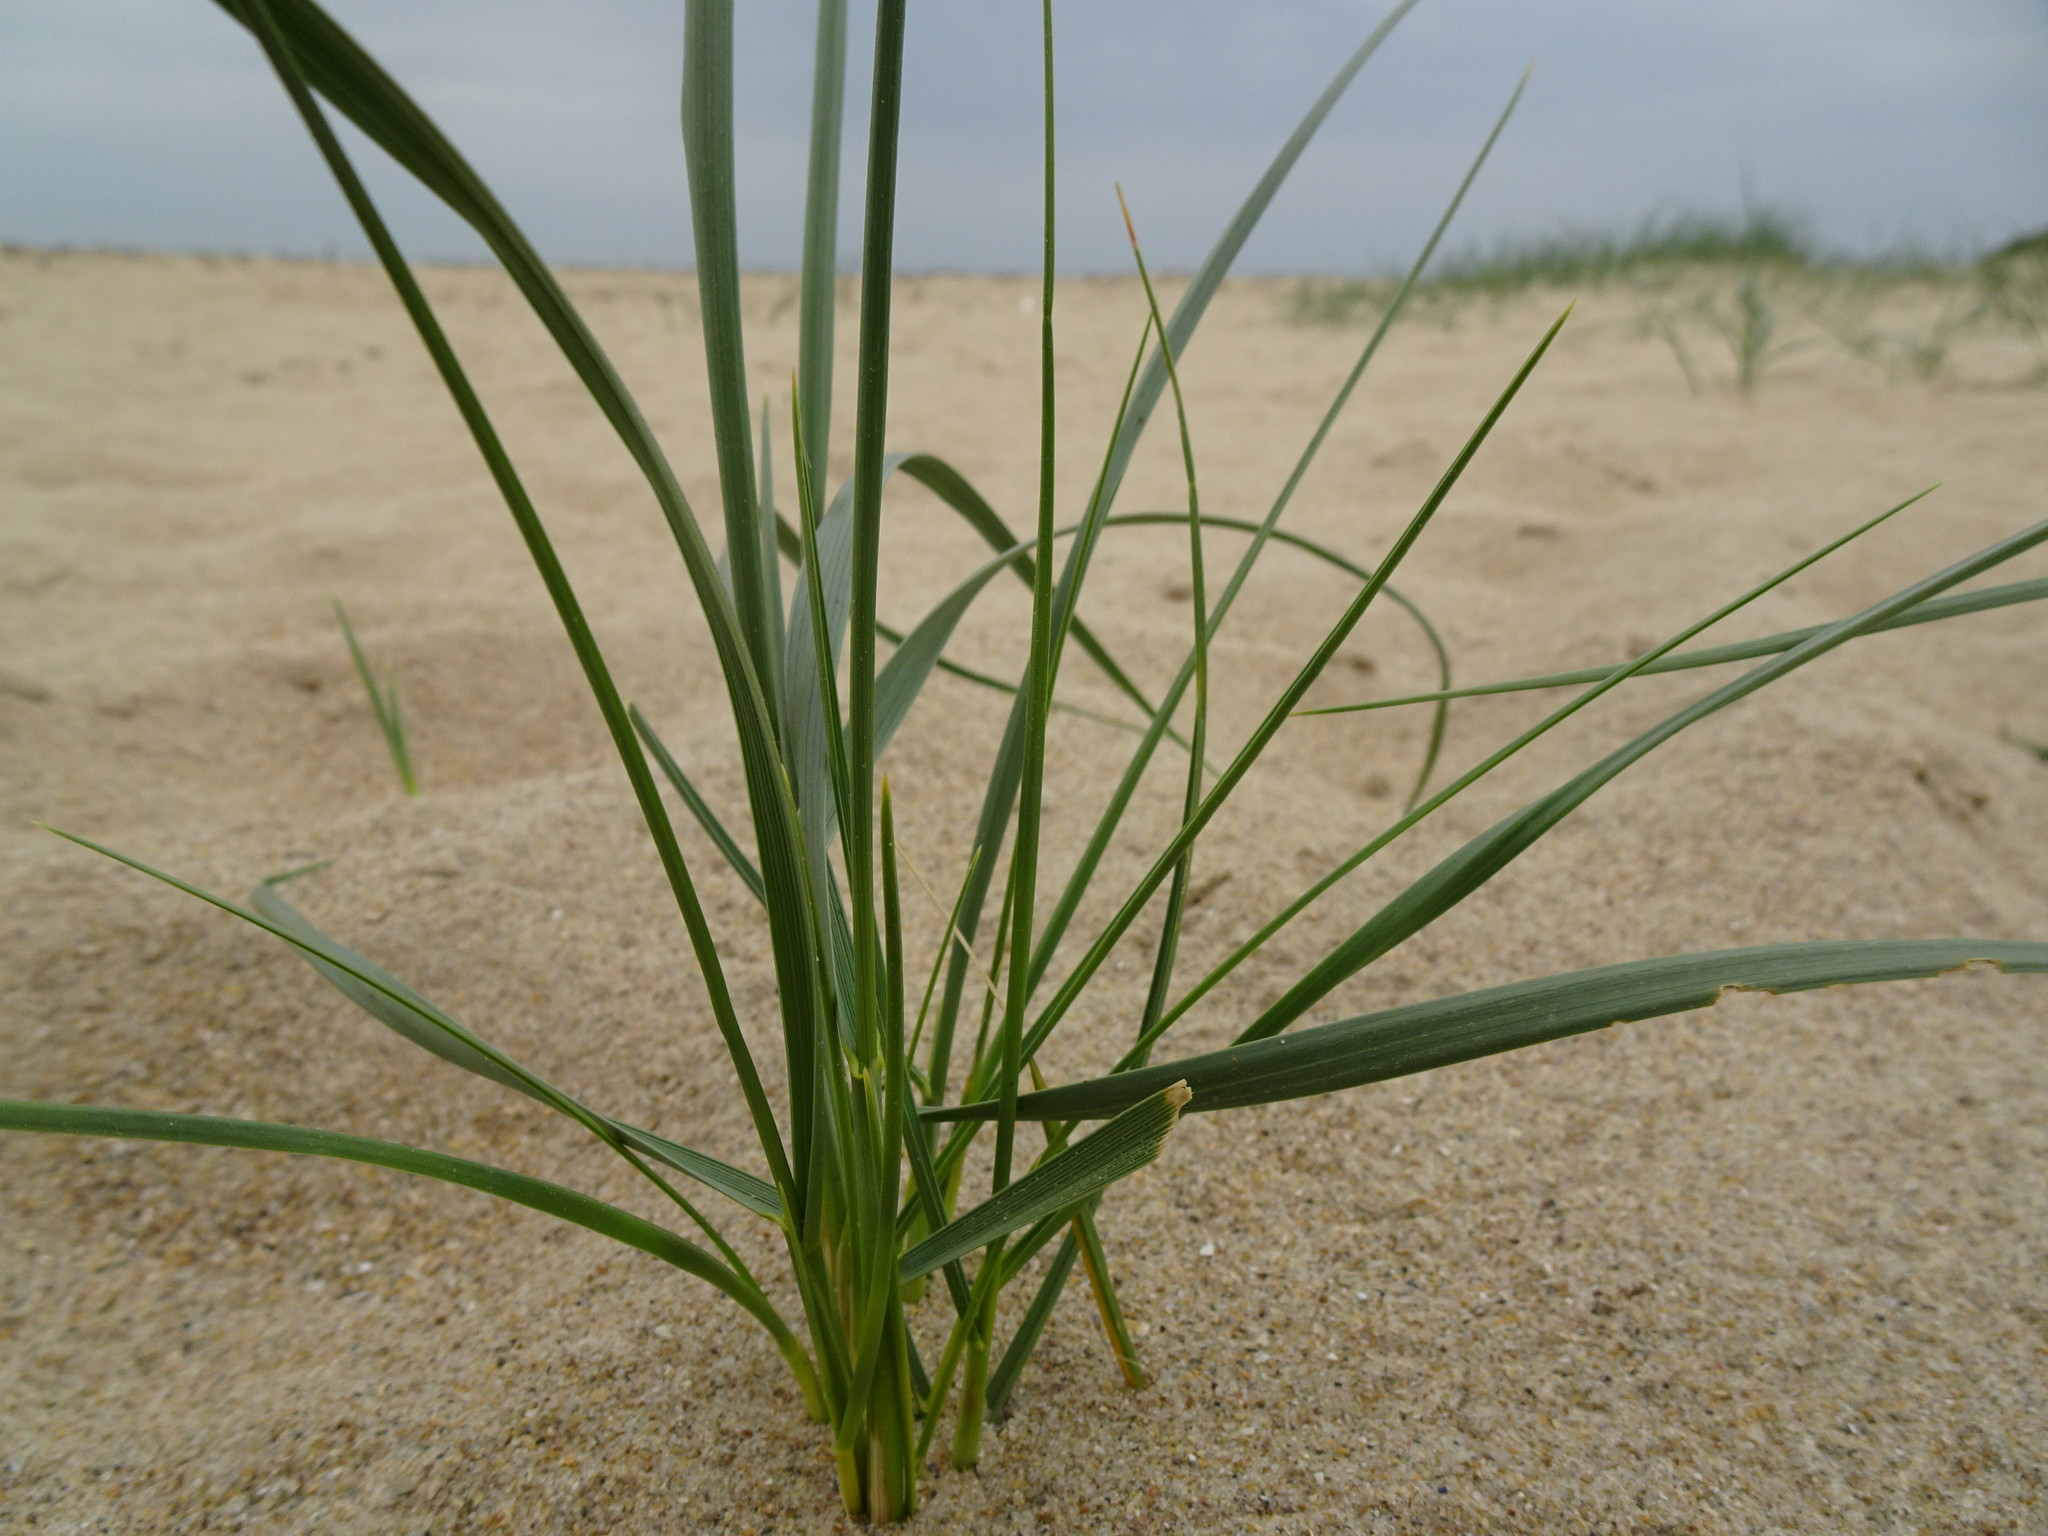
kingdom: Plantae
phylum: Tracheophyta
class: Liliopsida
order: Poales
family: Poaceae
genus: Thinopyrum
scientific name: Thinopyrum junceum
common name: Russian wheatgrass
